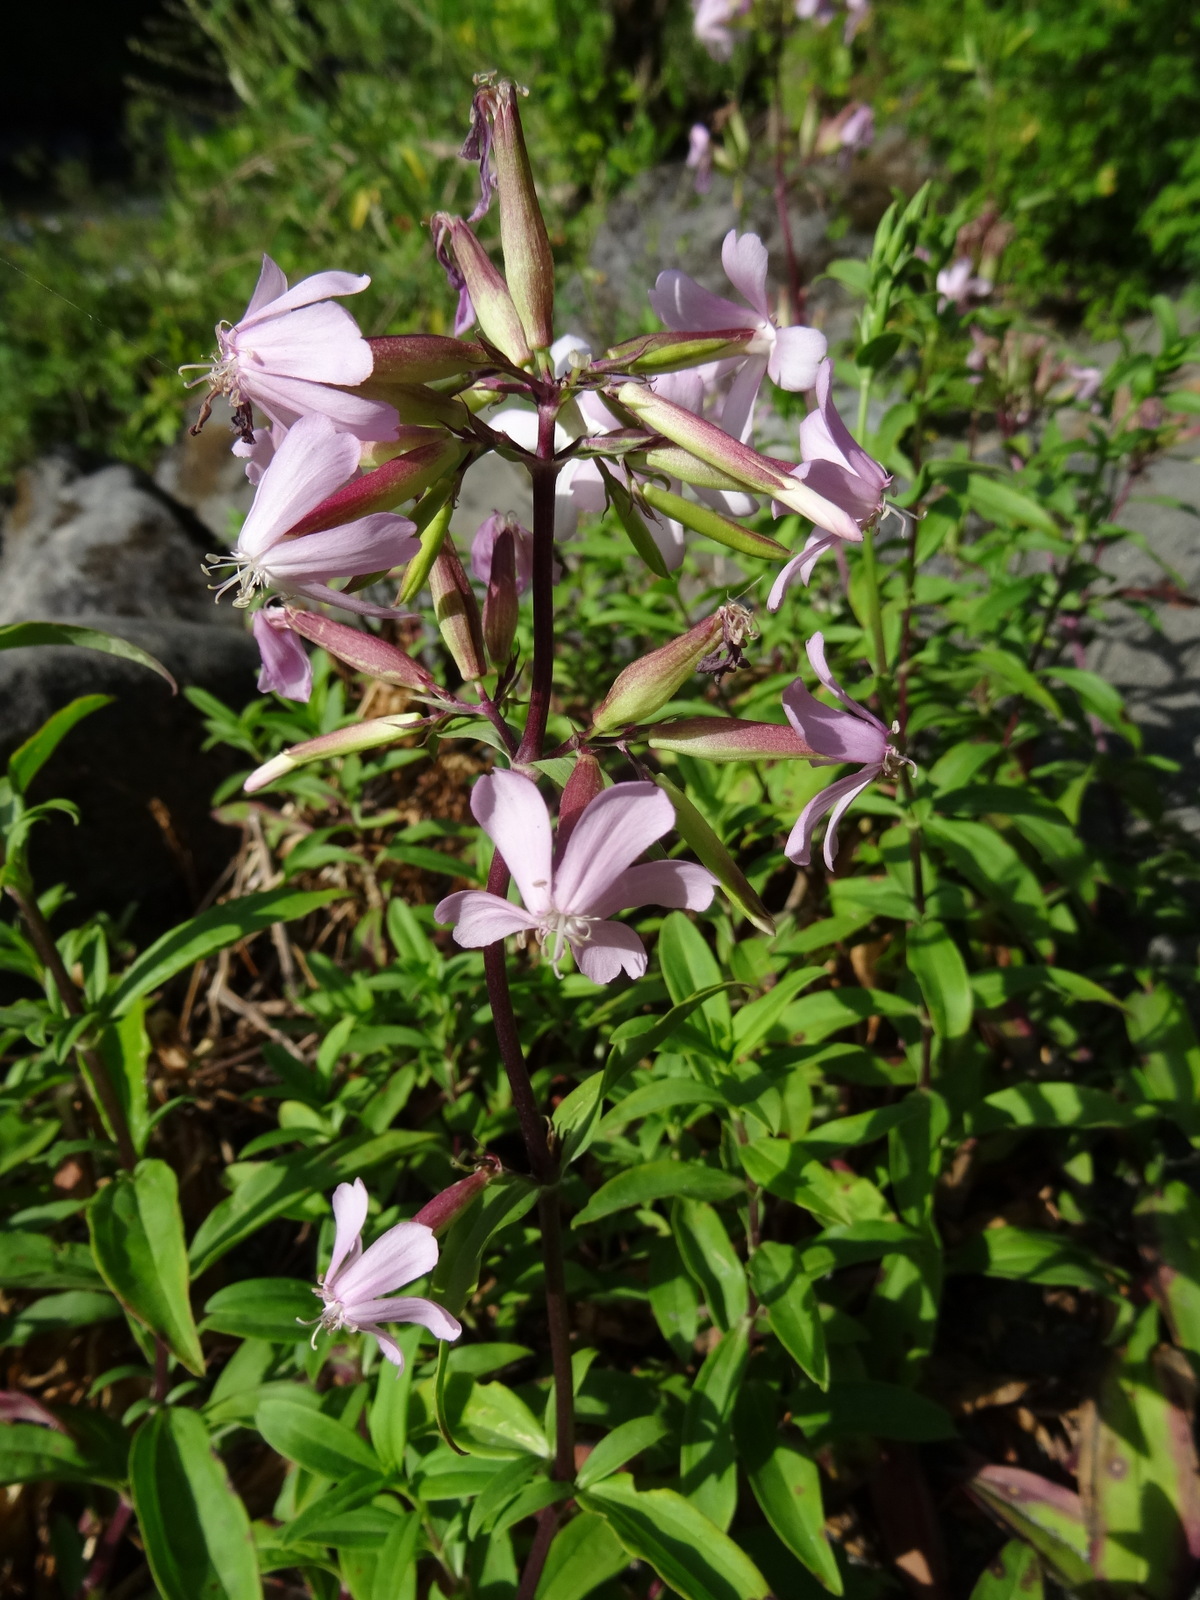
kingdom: Plantae
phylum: Tracheophyta
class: Magnoliopsida
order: Caryophyllales
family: Caryophyllaceae
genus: Saponaria
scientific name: Saponaria officinalis
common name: Soapwort
